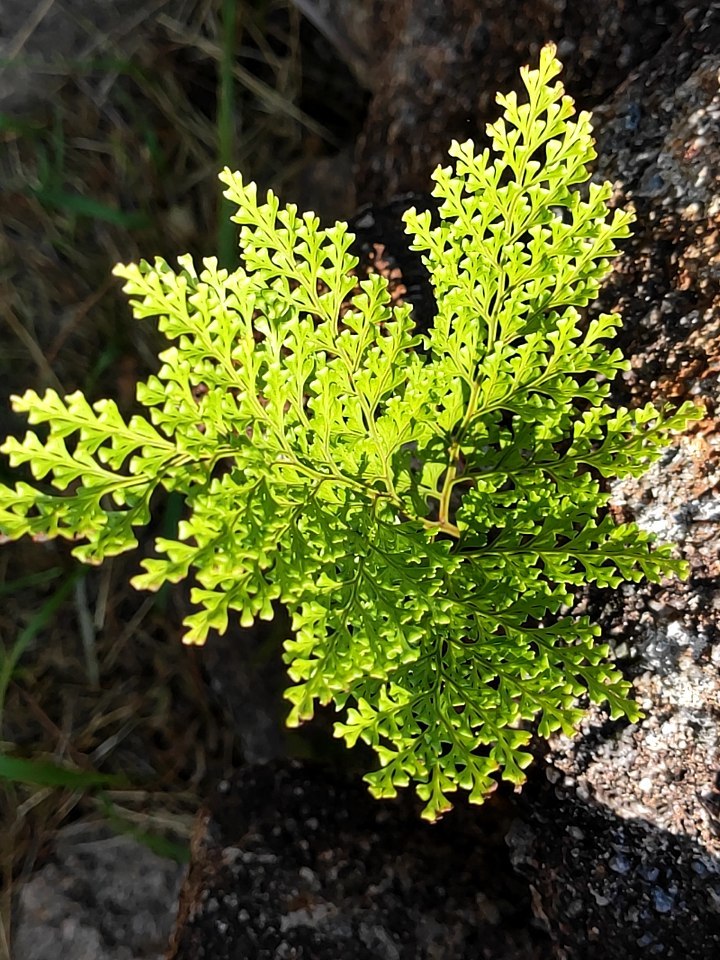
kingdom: Plantae
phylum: Tracheophyta
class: Polypodiopsida
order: Polypodiales
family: Davalliaceae
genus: Davallia
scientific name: Davallia canariensis
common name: Hare's-foot fern
